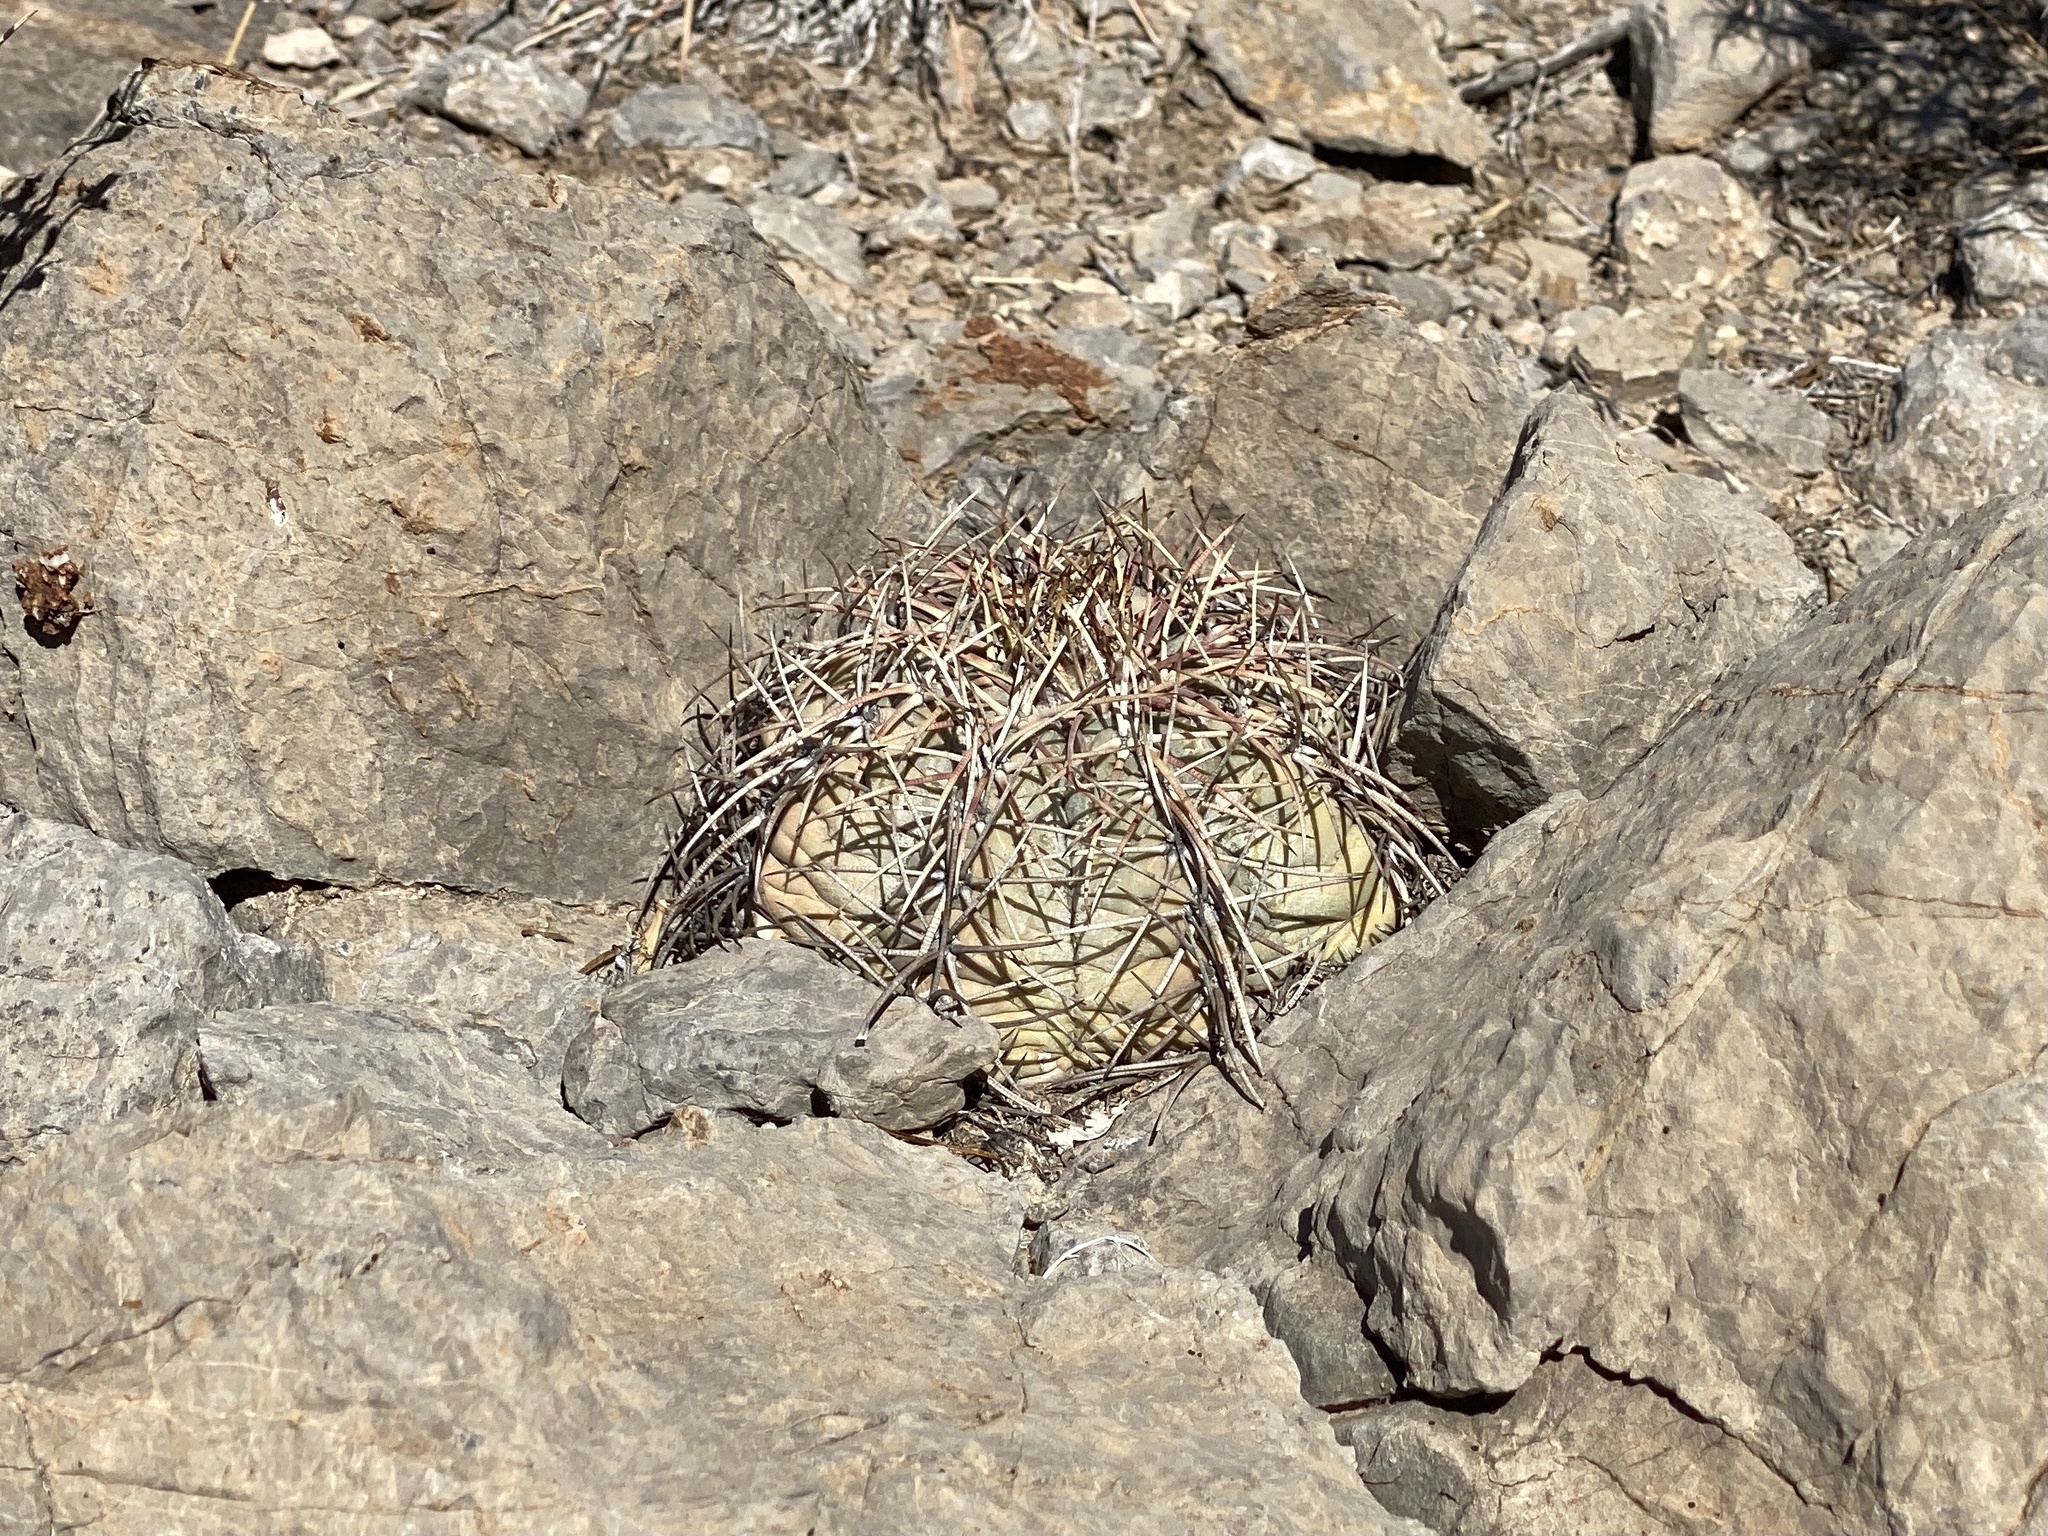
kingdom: Plantae
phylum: Tracheophyta
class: Magnoliopsida
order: Caryophyllales
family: Cactaceae
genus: Echinocactus
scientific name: Echinocactus horizonthalonius
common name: Devilshead
